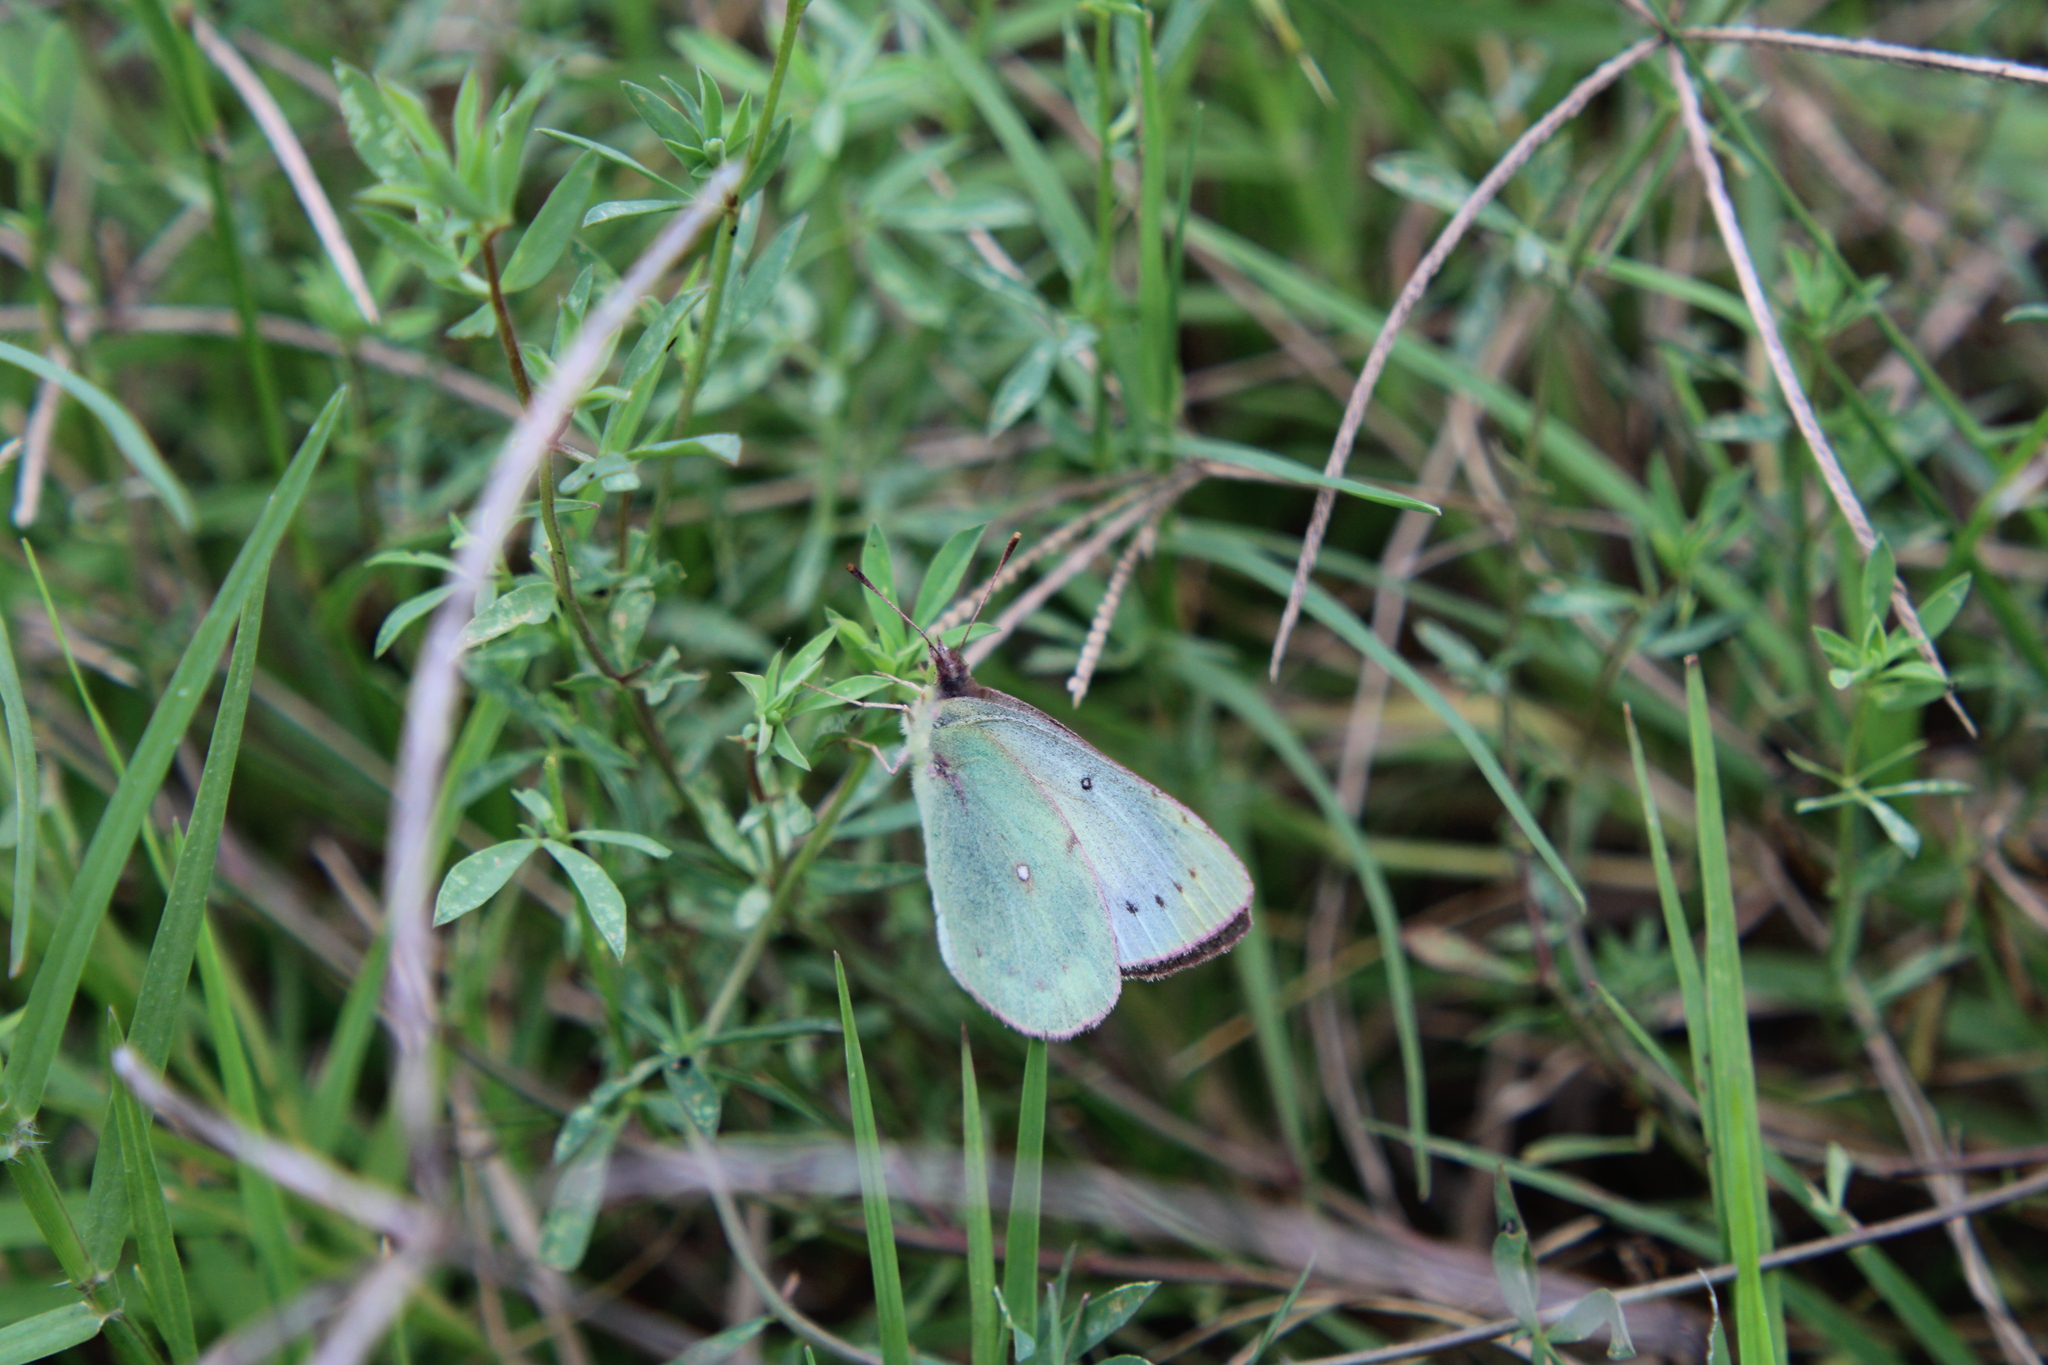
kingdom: Animalia
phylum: Arthropoda
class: Insecta
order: Lepidoptera
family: Pieridae
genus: Colias
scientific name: Colias lesbia
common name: Lesbia clouded yellow
